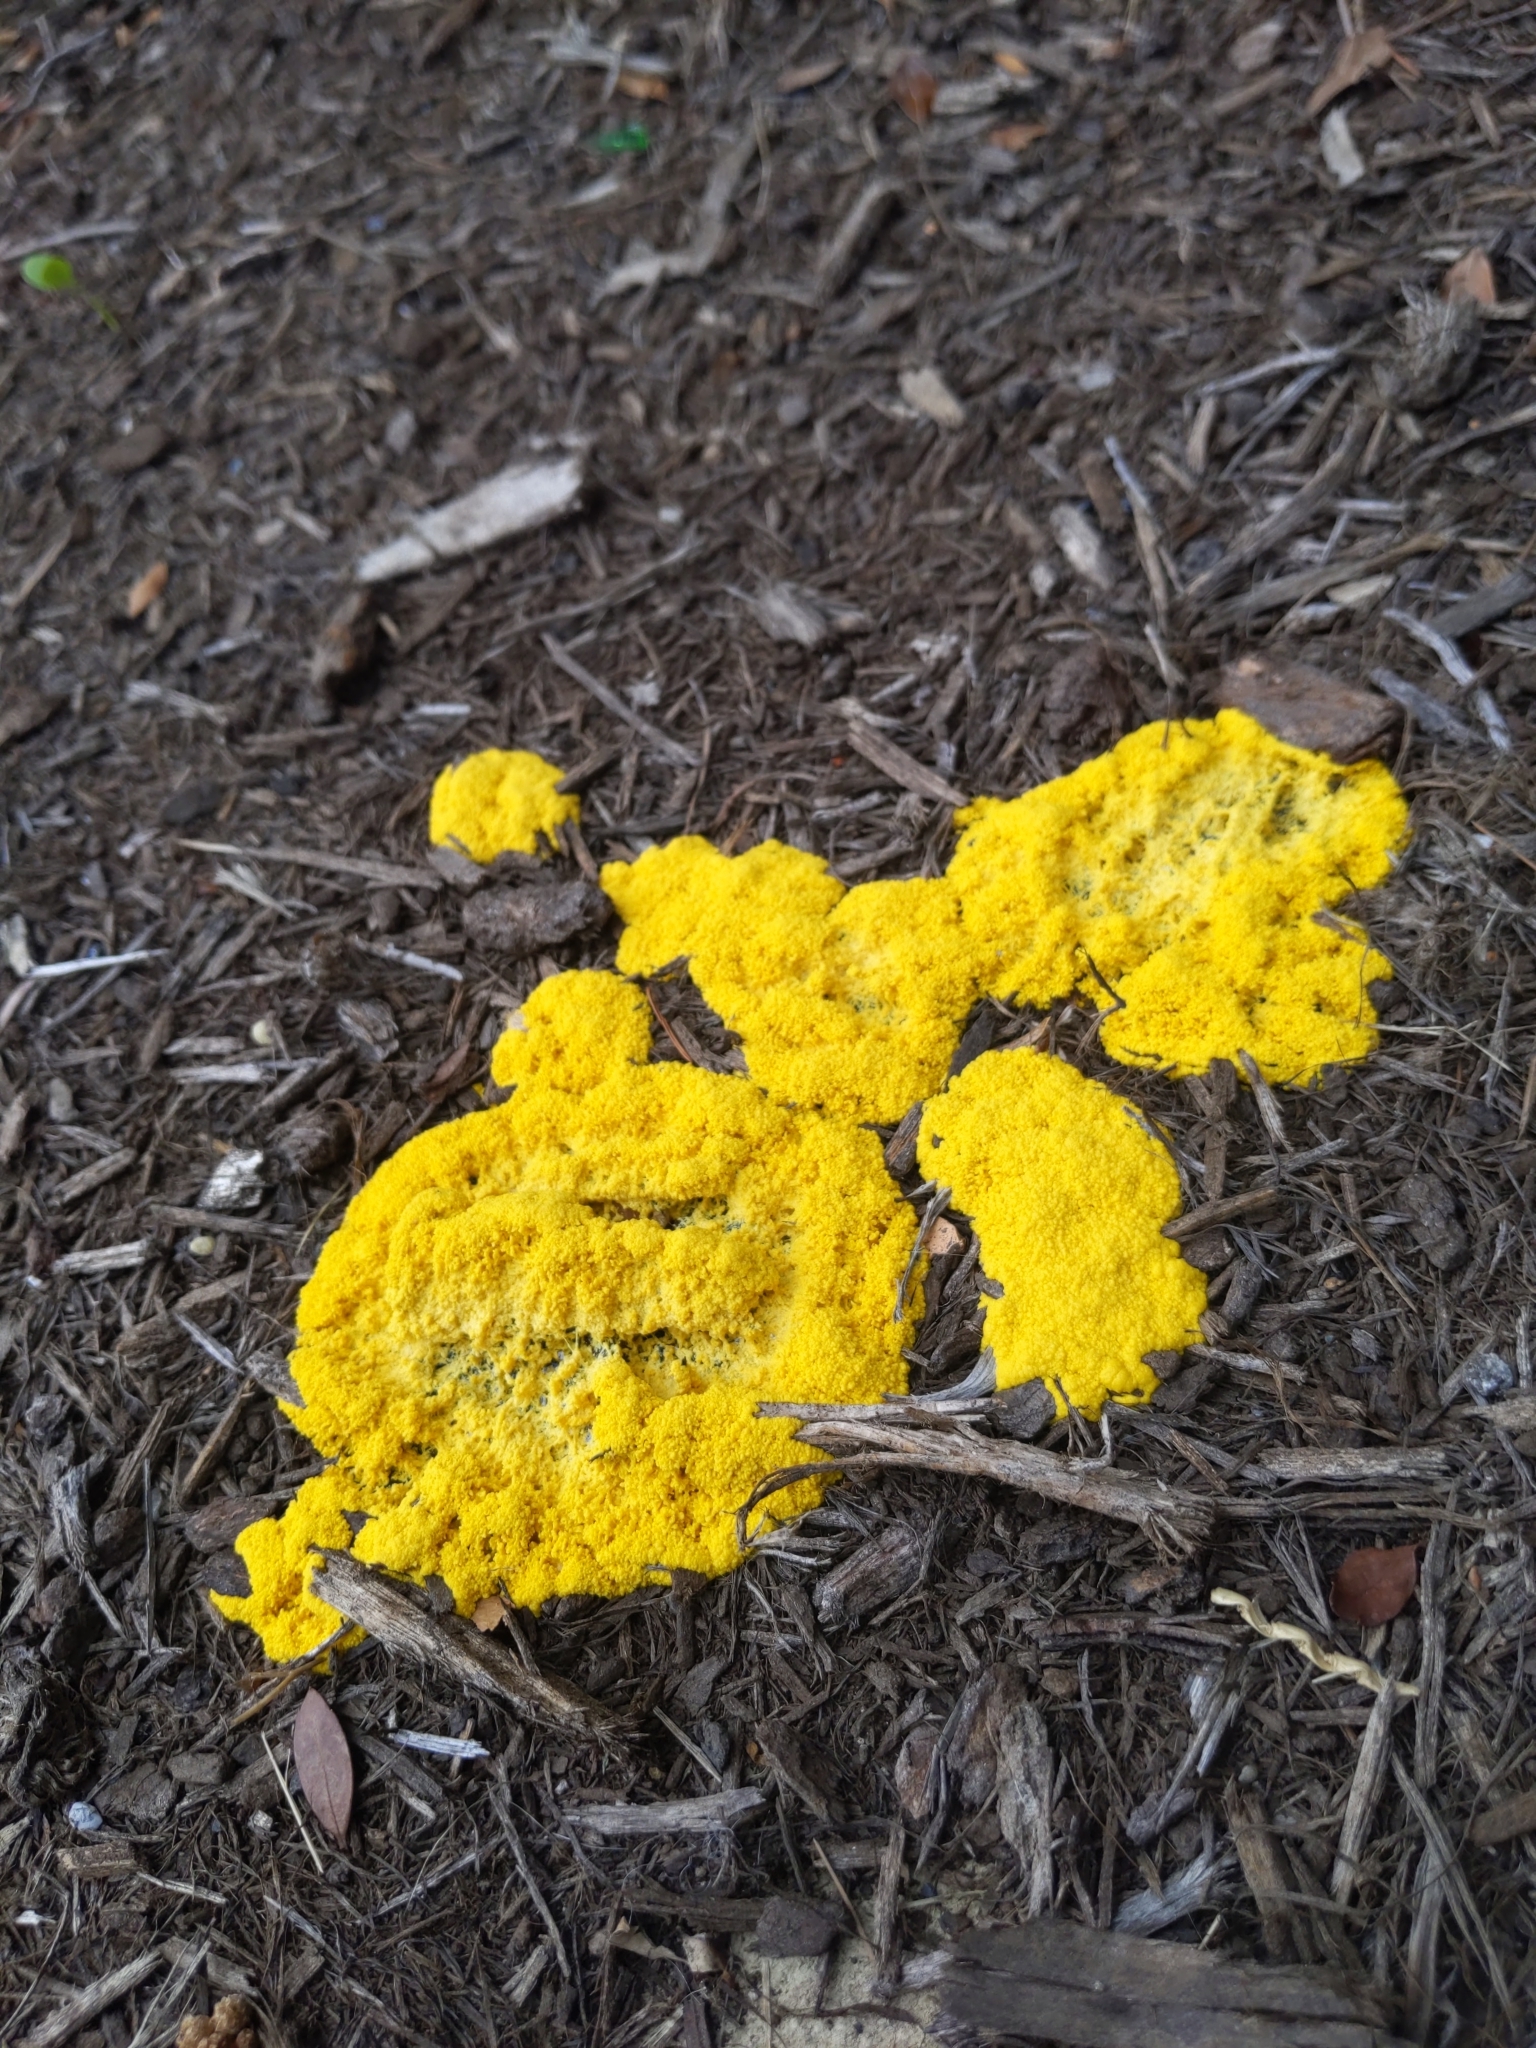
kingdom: Protozoa
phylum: Mycetozoa
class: Myxomycetes
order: Physarales
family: Physaraceae
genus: Fuligo
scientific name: Fuligo septica
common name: Dog vomit slime mold
